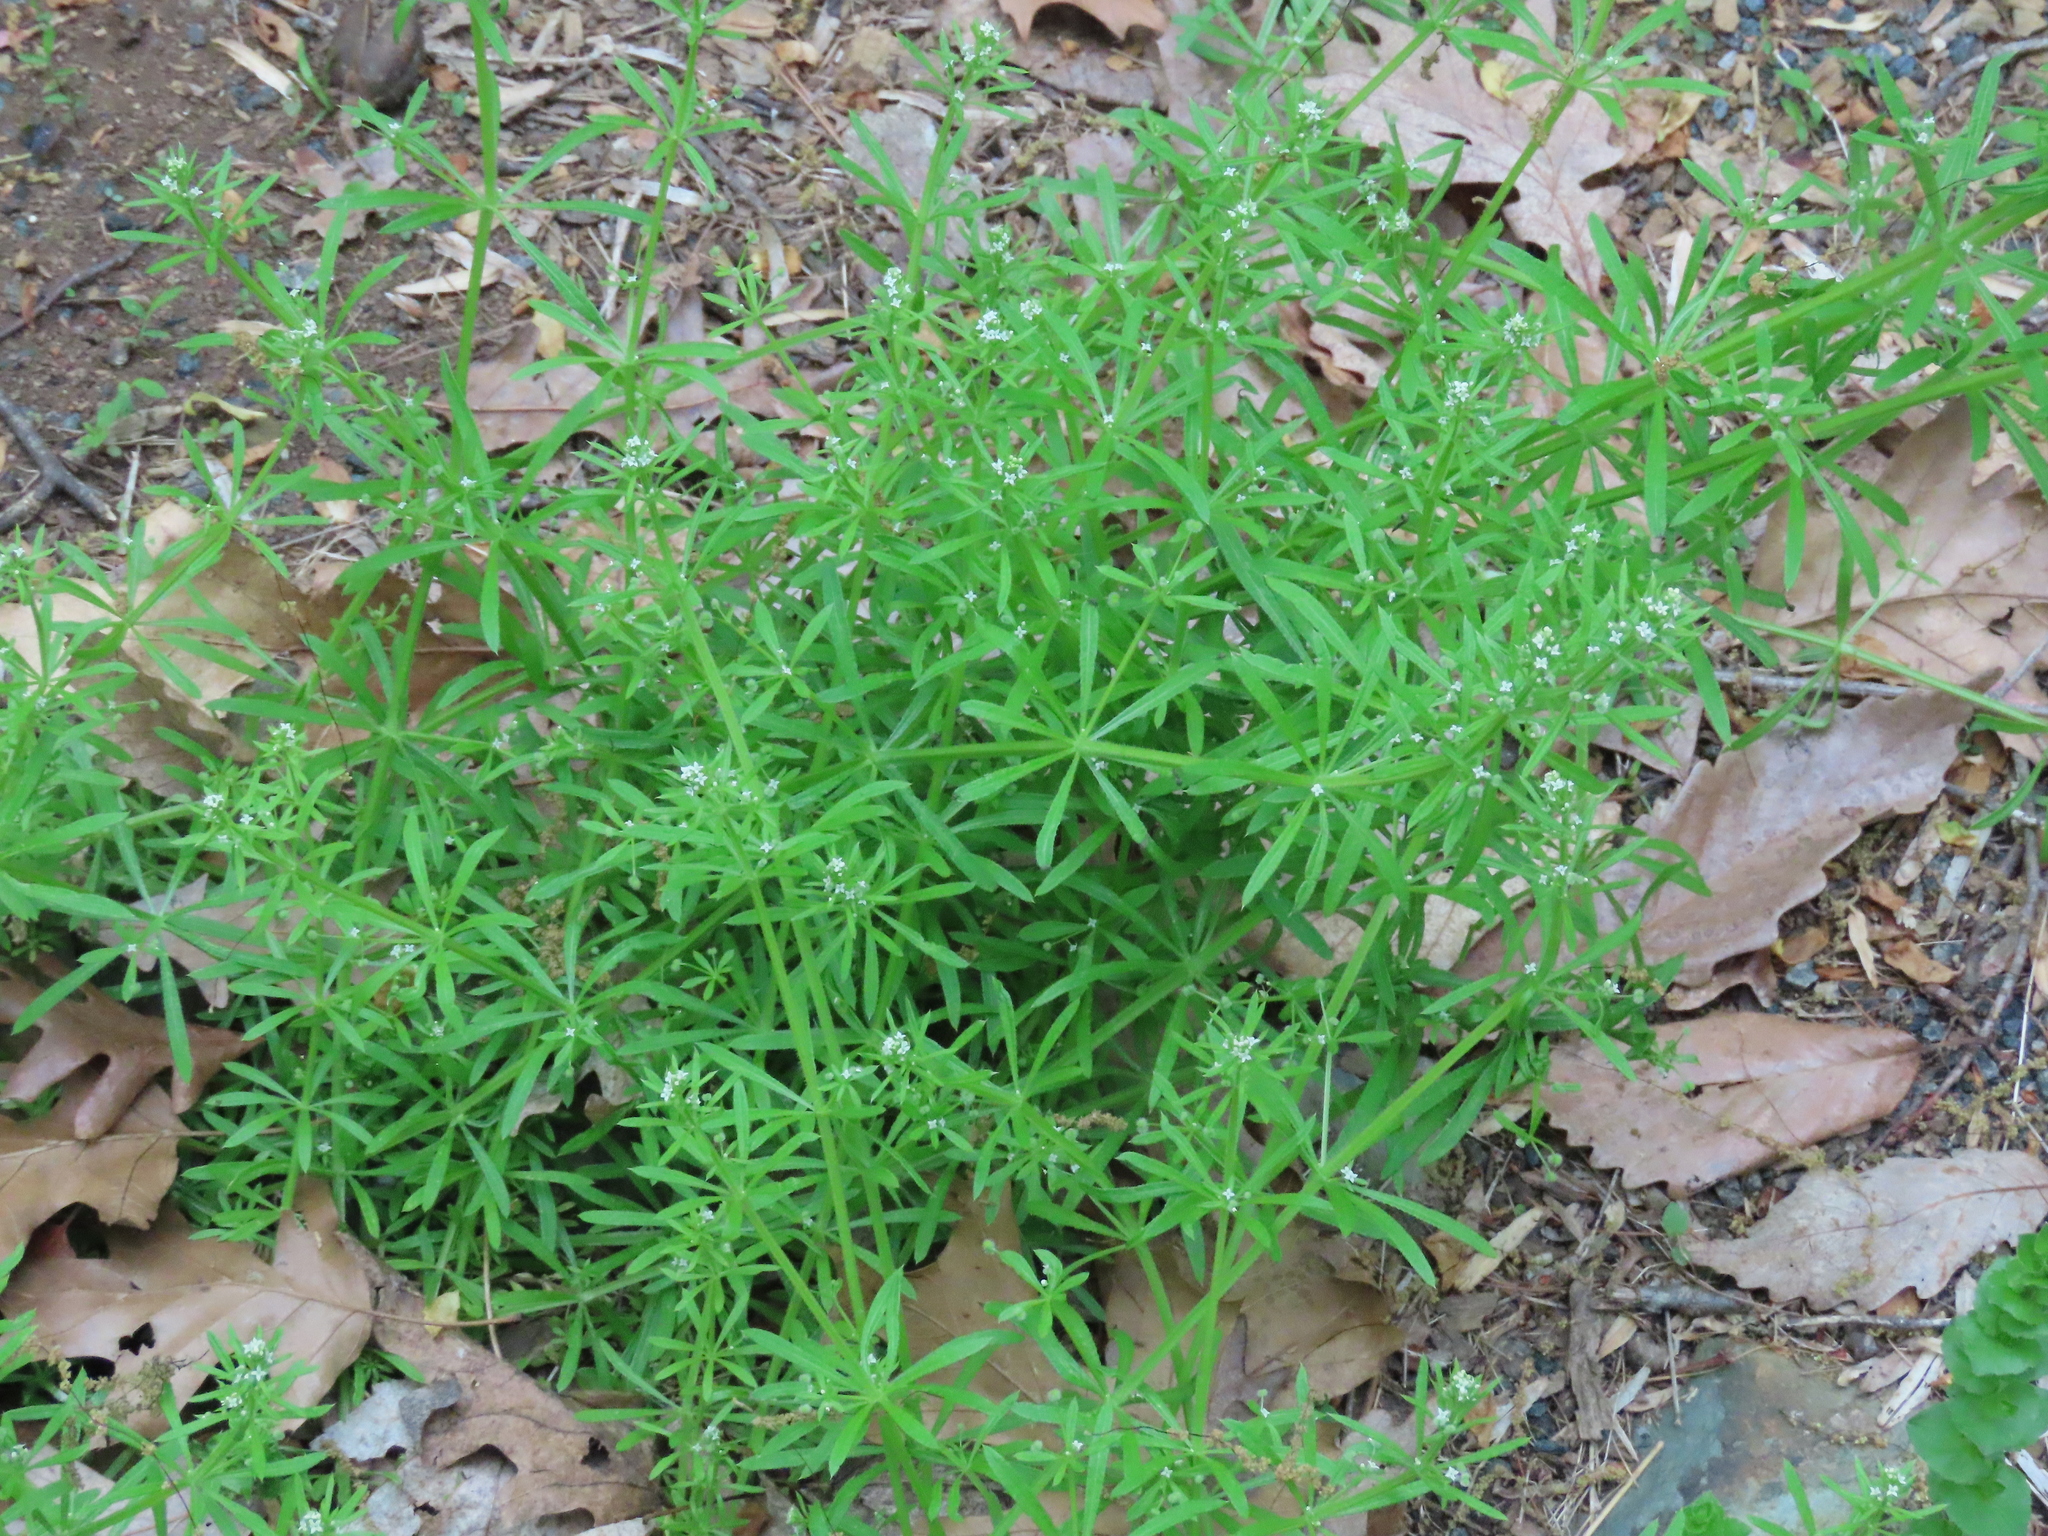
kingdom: Plantae
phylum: Tracheophyta
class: Magnoliopsida
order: Gentianales
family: Rubiaceae
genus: Galium
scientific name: Galium aparine
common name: Cleavers
